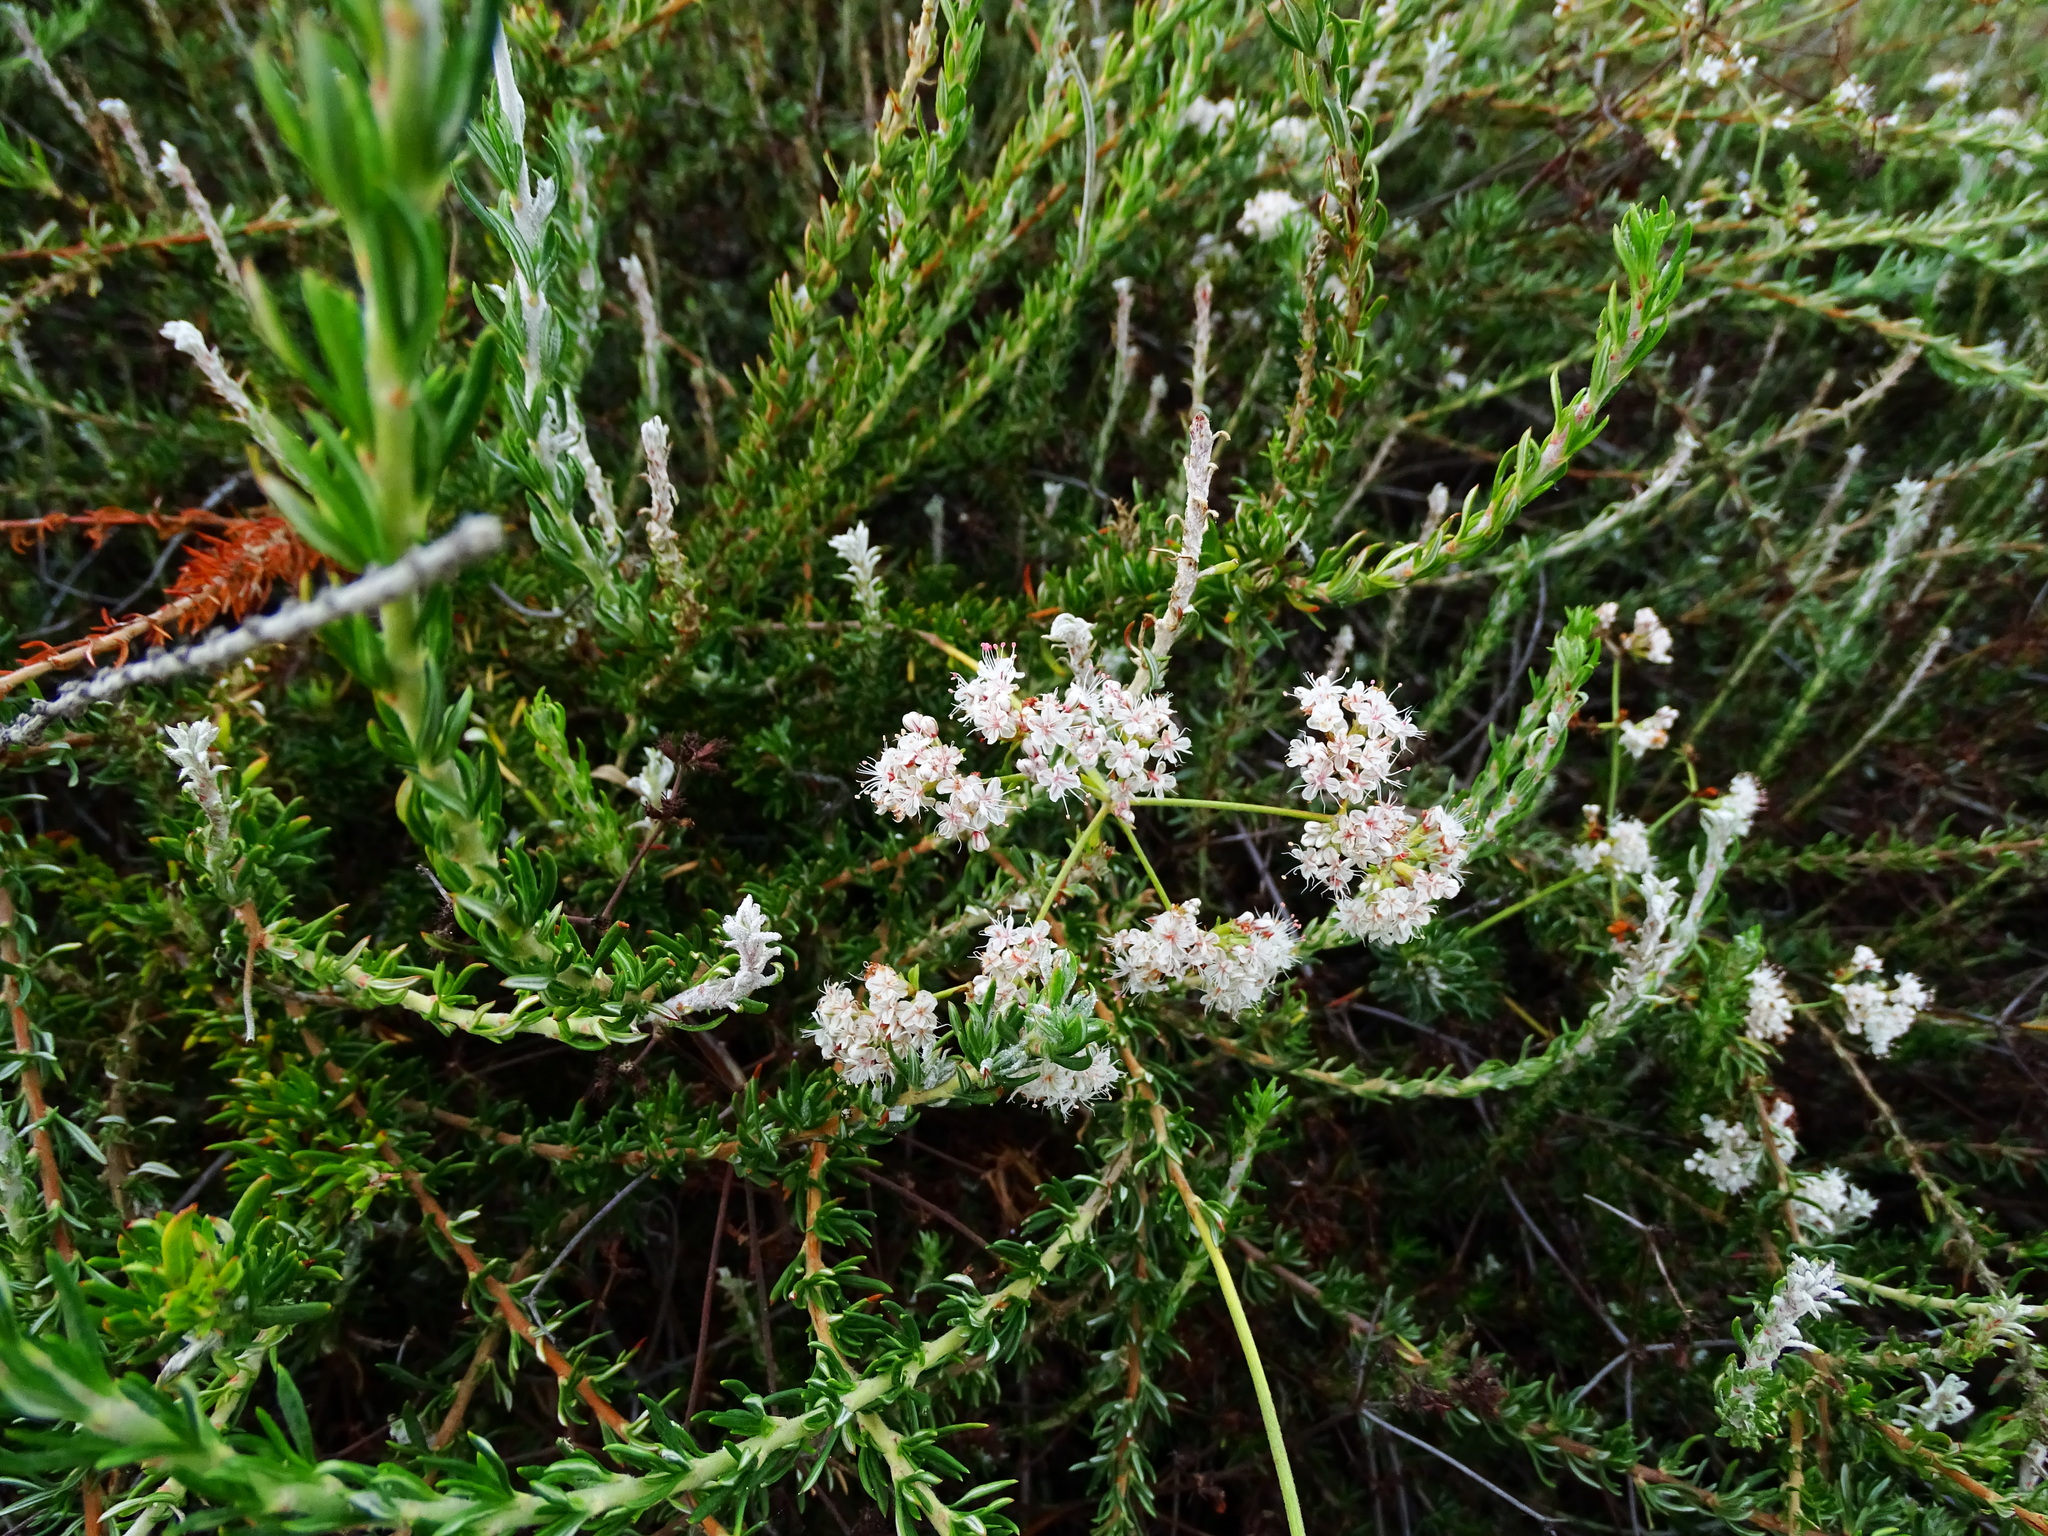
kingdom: Plantae
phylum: Tracheophyta
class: Magnoliopsida
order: Caryophyllales
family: Polygonaceae
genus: Eriogonum
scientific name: Eriogonum fasciculatum
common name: California wild buckwheat
